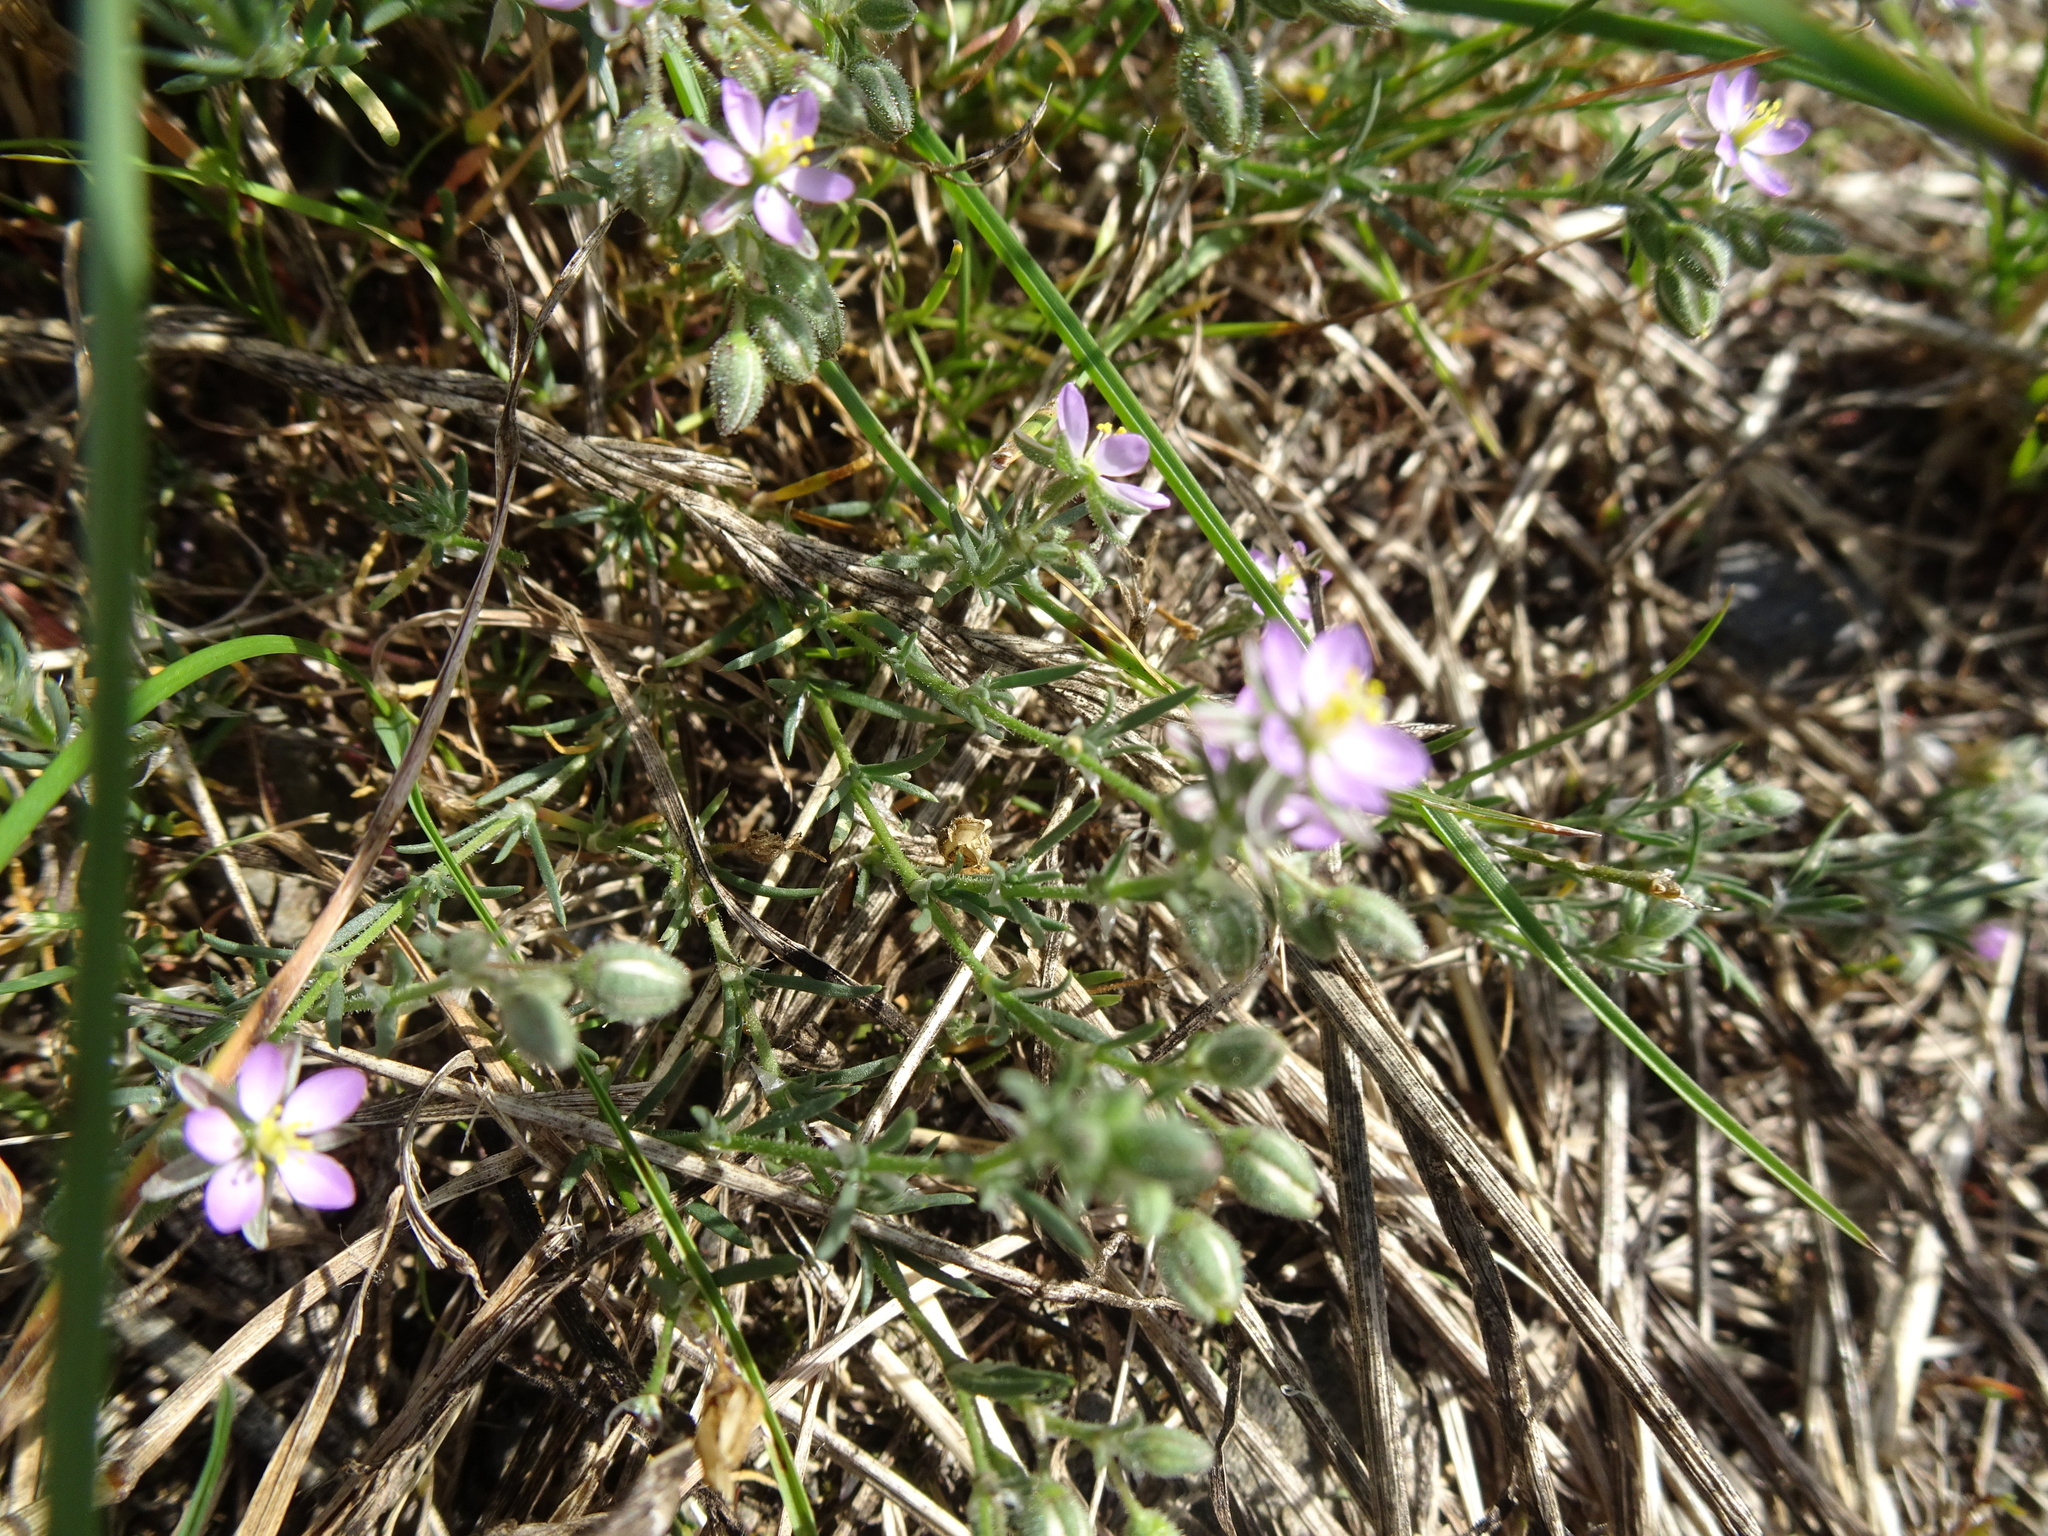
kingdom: Plantae
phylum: Tracheophyta
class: Magnoliopsida
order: Caryophyllales
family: Caryophyllaceae
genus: Spergularia
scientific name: Spergularia rubra
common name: Red sand-spurrey
